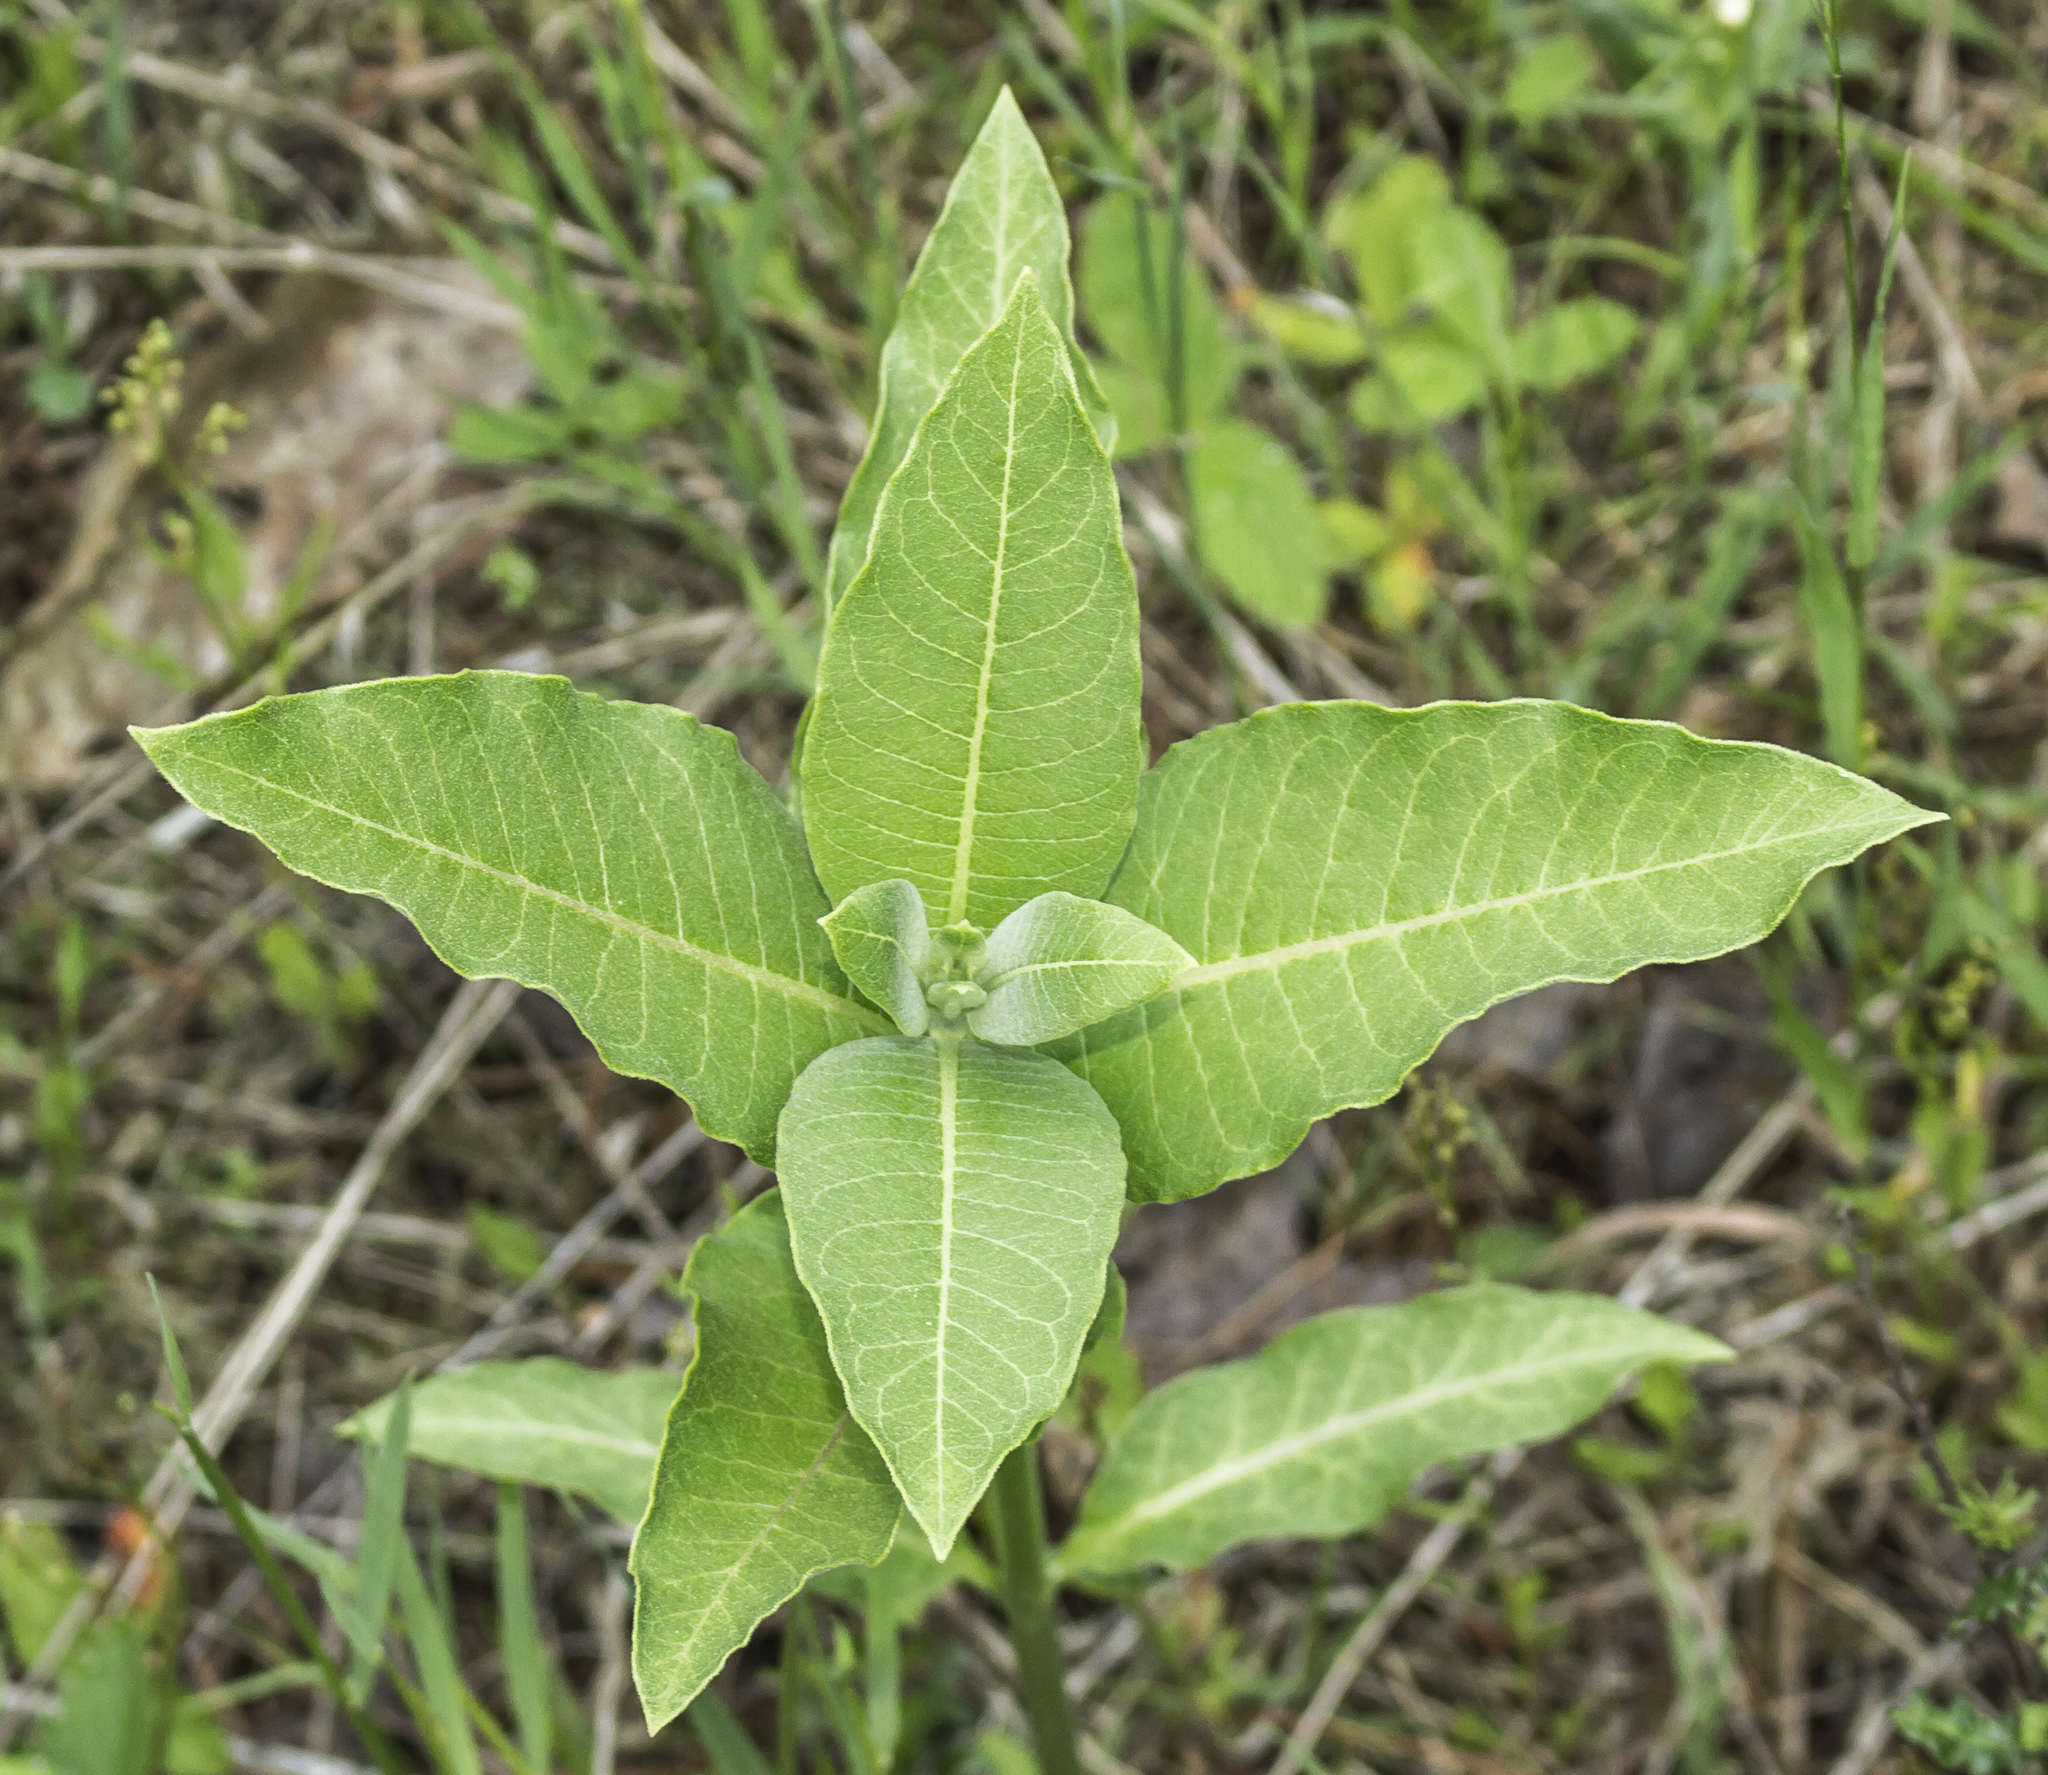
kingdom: Plantae
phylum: Tracheophyta
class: Magnoliopsida
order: Gentianales
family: Apocynaceae
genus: Asclepias
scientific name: Asclepias syriaca
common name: Common milkweed
